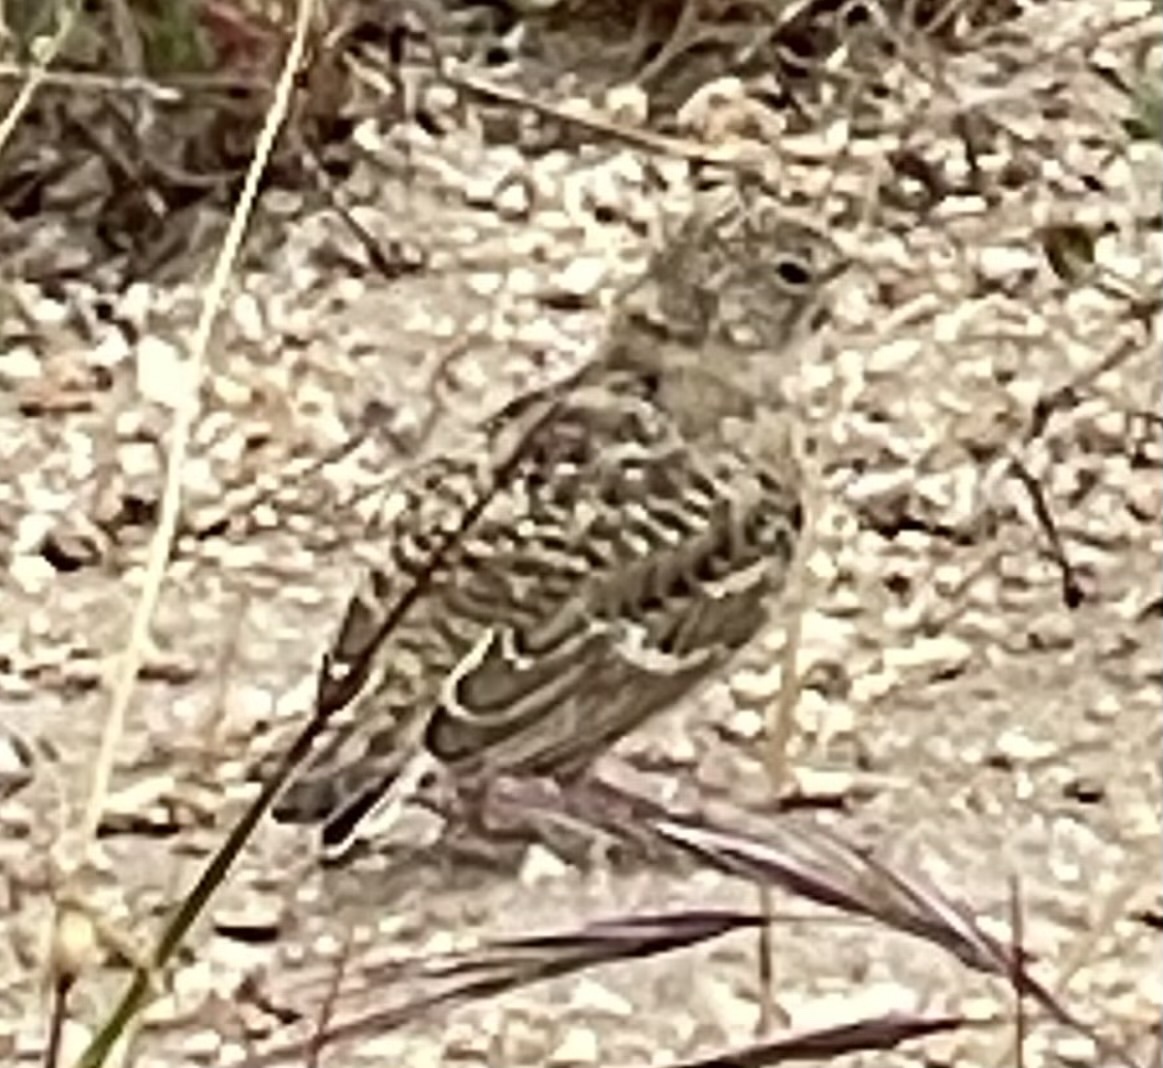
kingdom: Animalia
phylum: Chordata
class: Aves
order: Passeriformes
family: Alaudidae
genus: Eremophila
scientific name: Eremophila alpestris
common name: Horned lark
